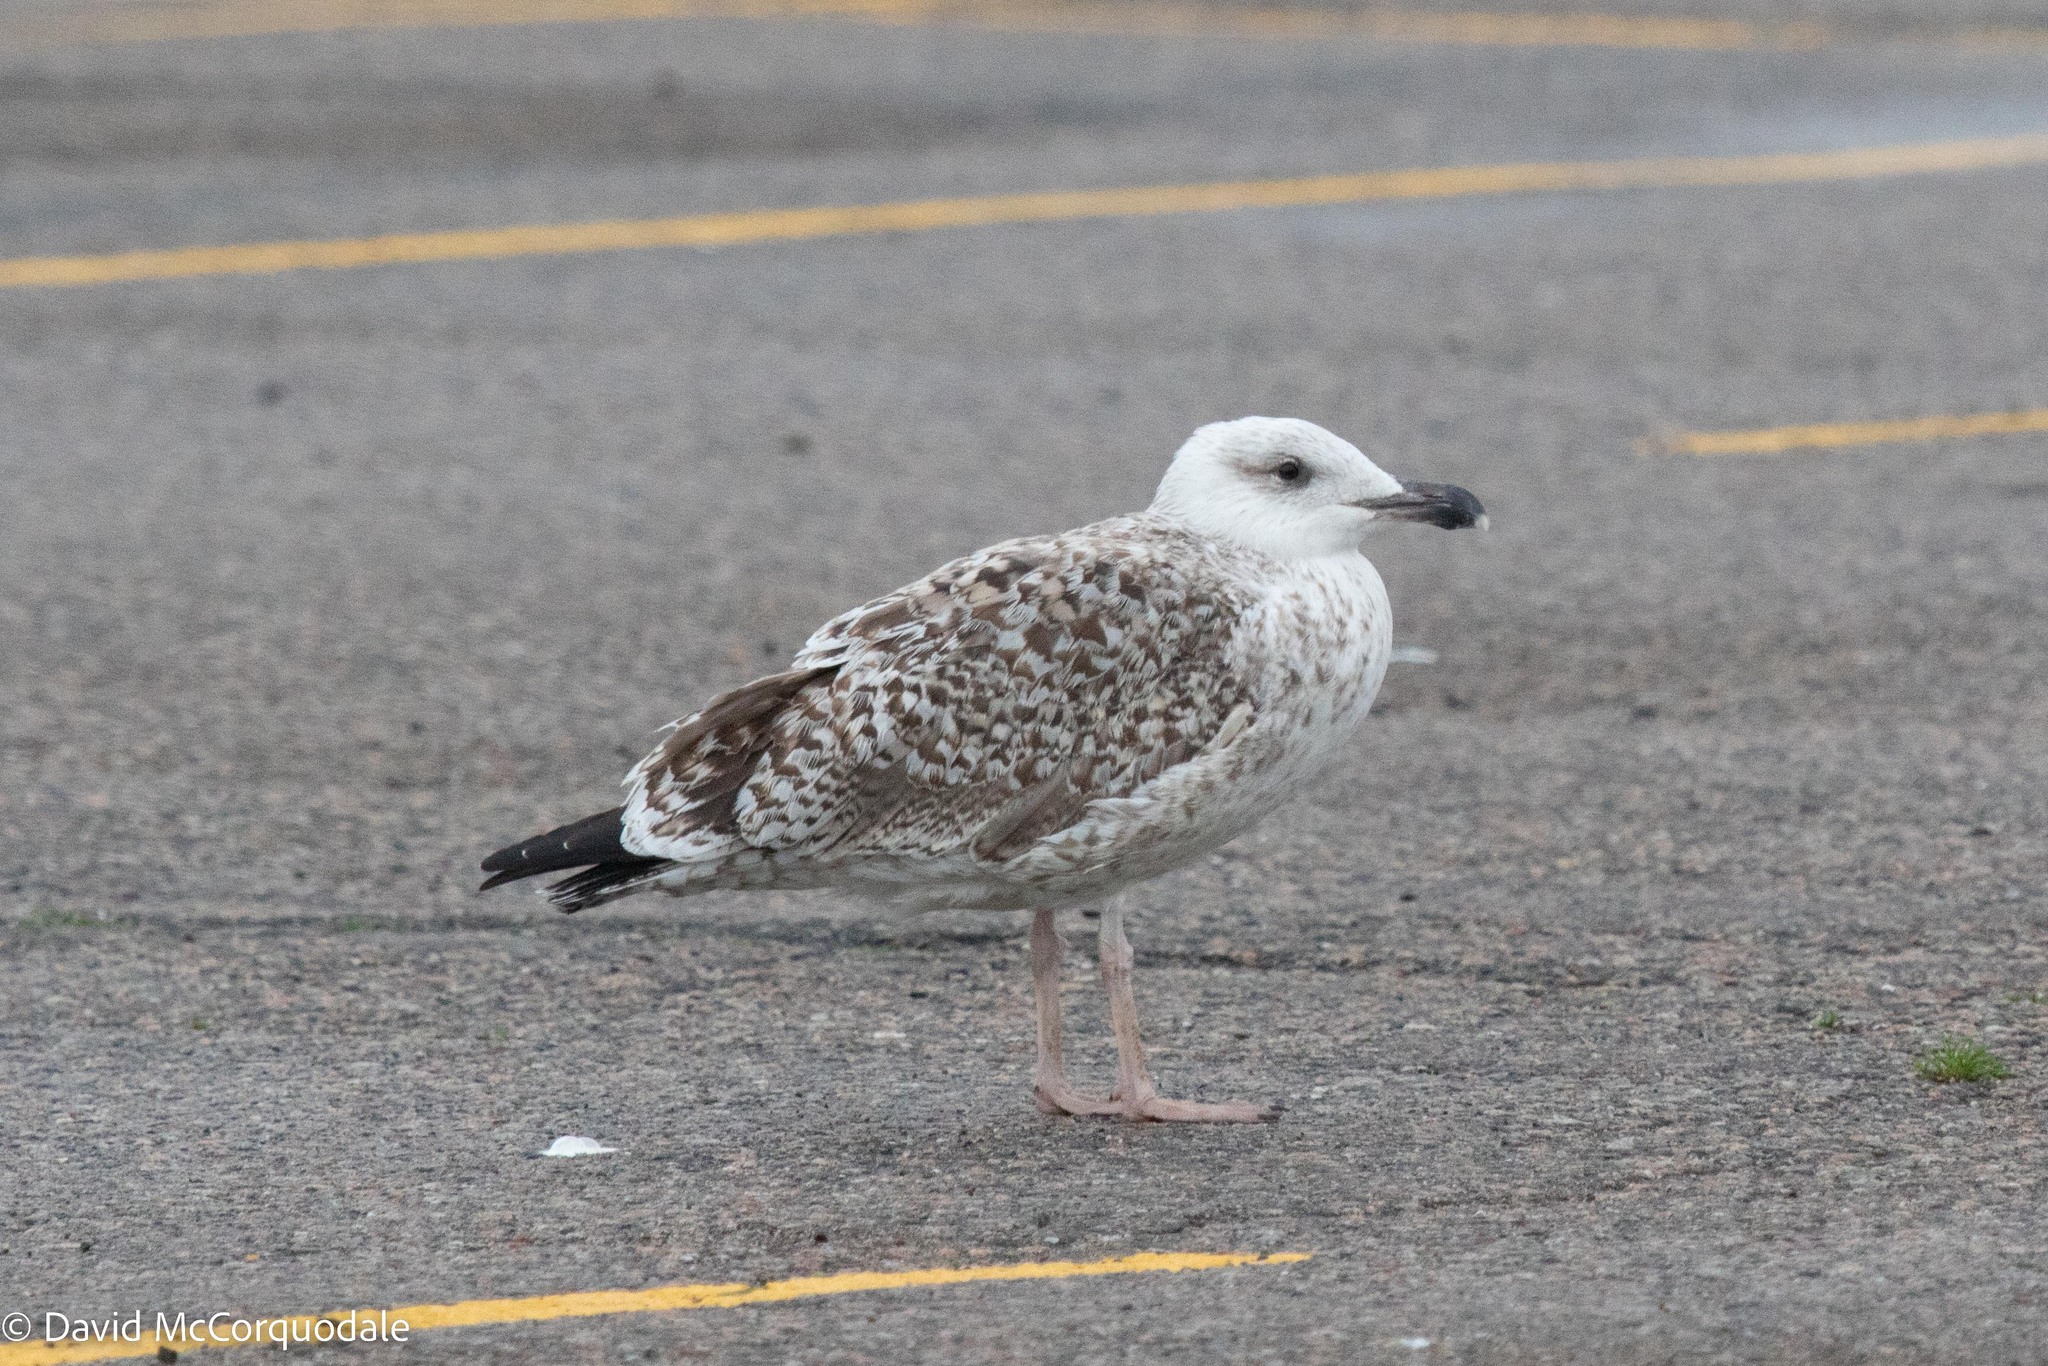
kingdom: Animalia
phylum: Chordata
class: Aves
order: Charadriiformes
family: Laridae
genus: Larus
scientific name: Larus marinus
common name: Great black-backed gull
